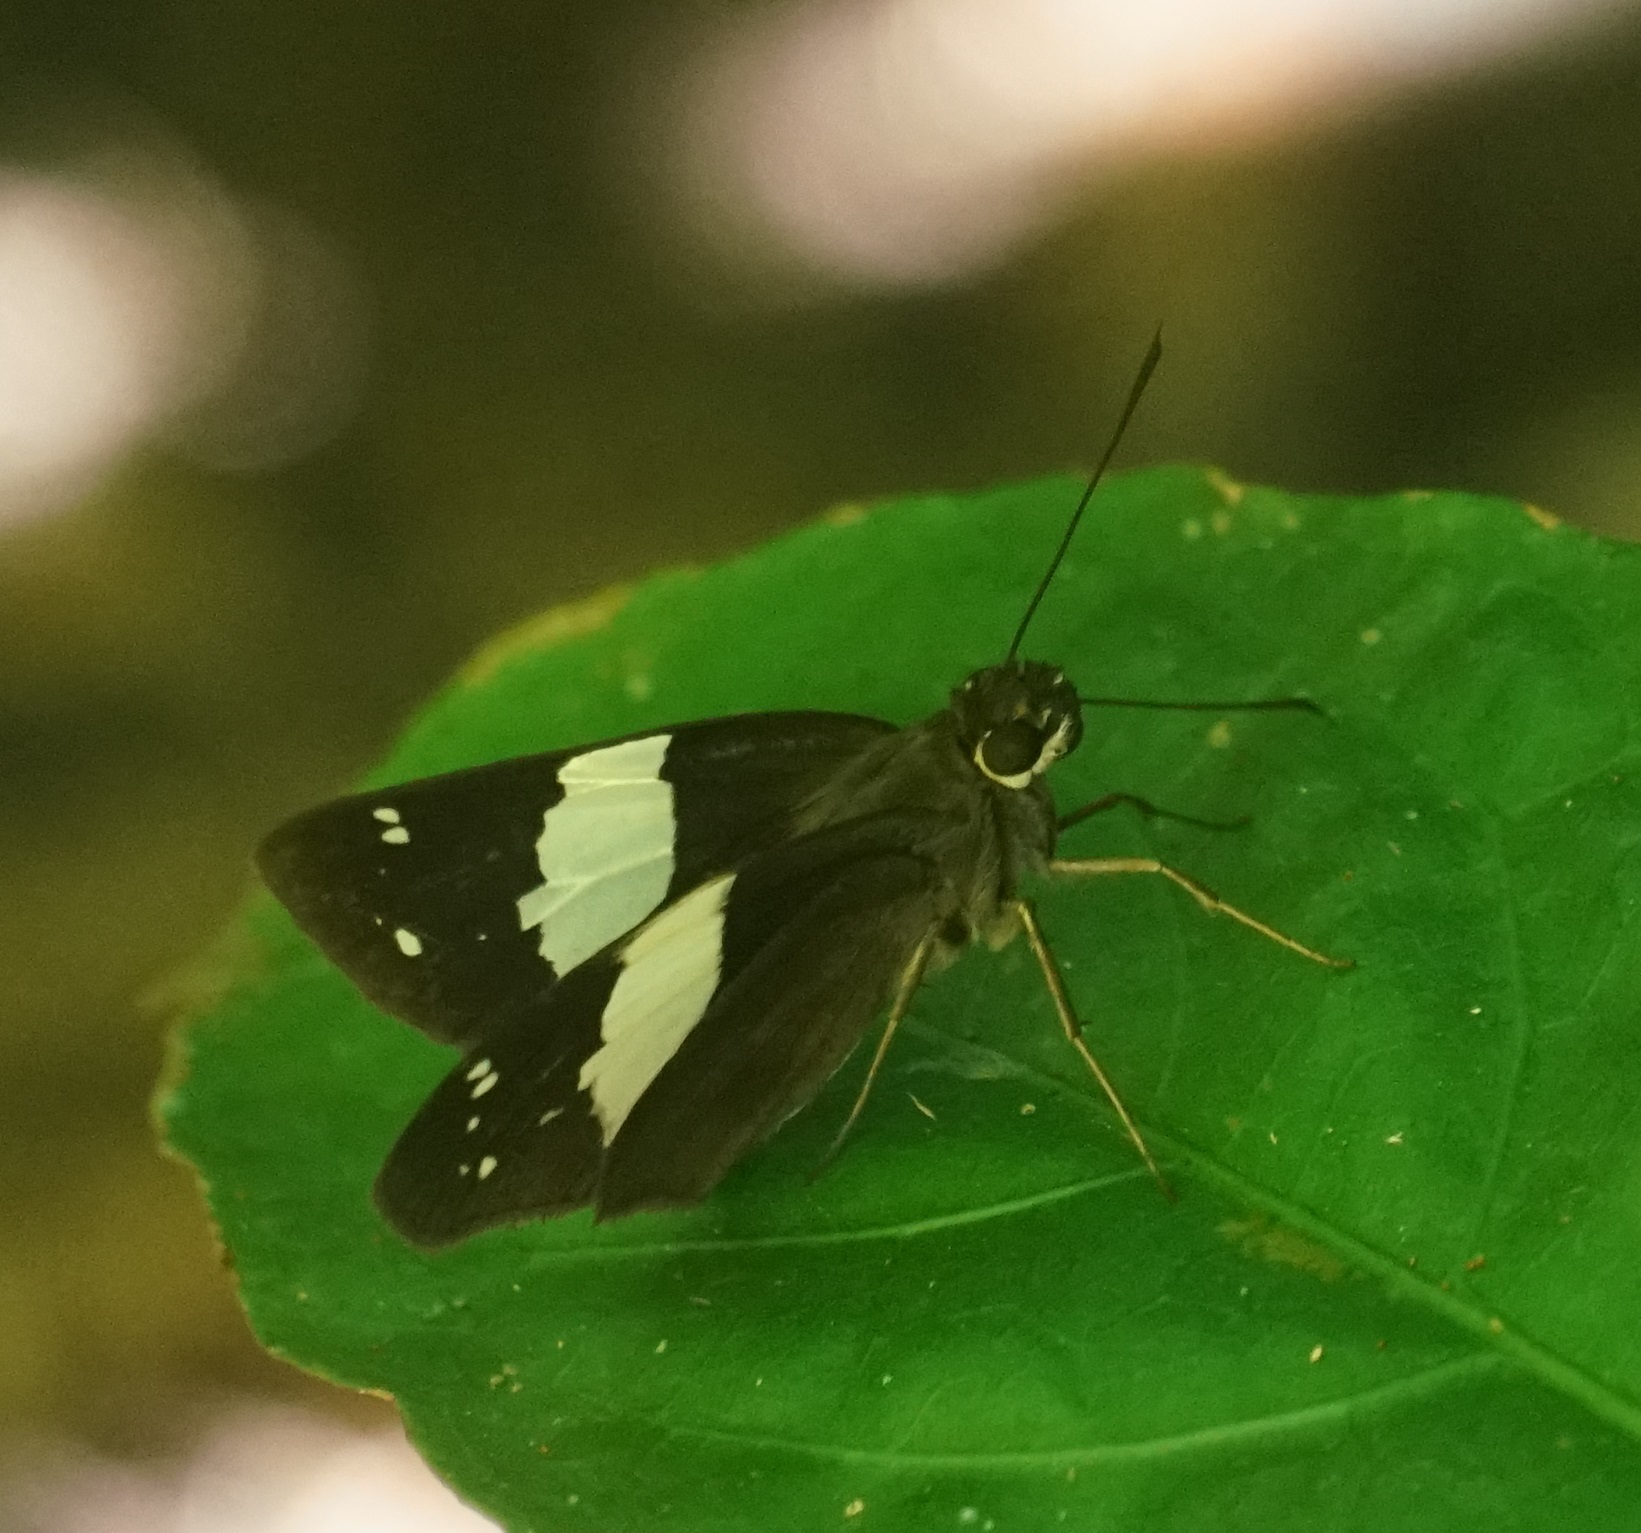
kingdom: Animalia
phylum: Arthropoda
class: Insecta
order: Lepidoptera
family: Hesperiidae
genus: Notocrypta
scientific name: Notocrypta waigensis
